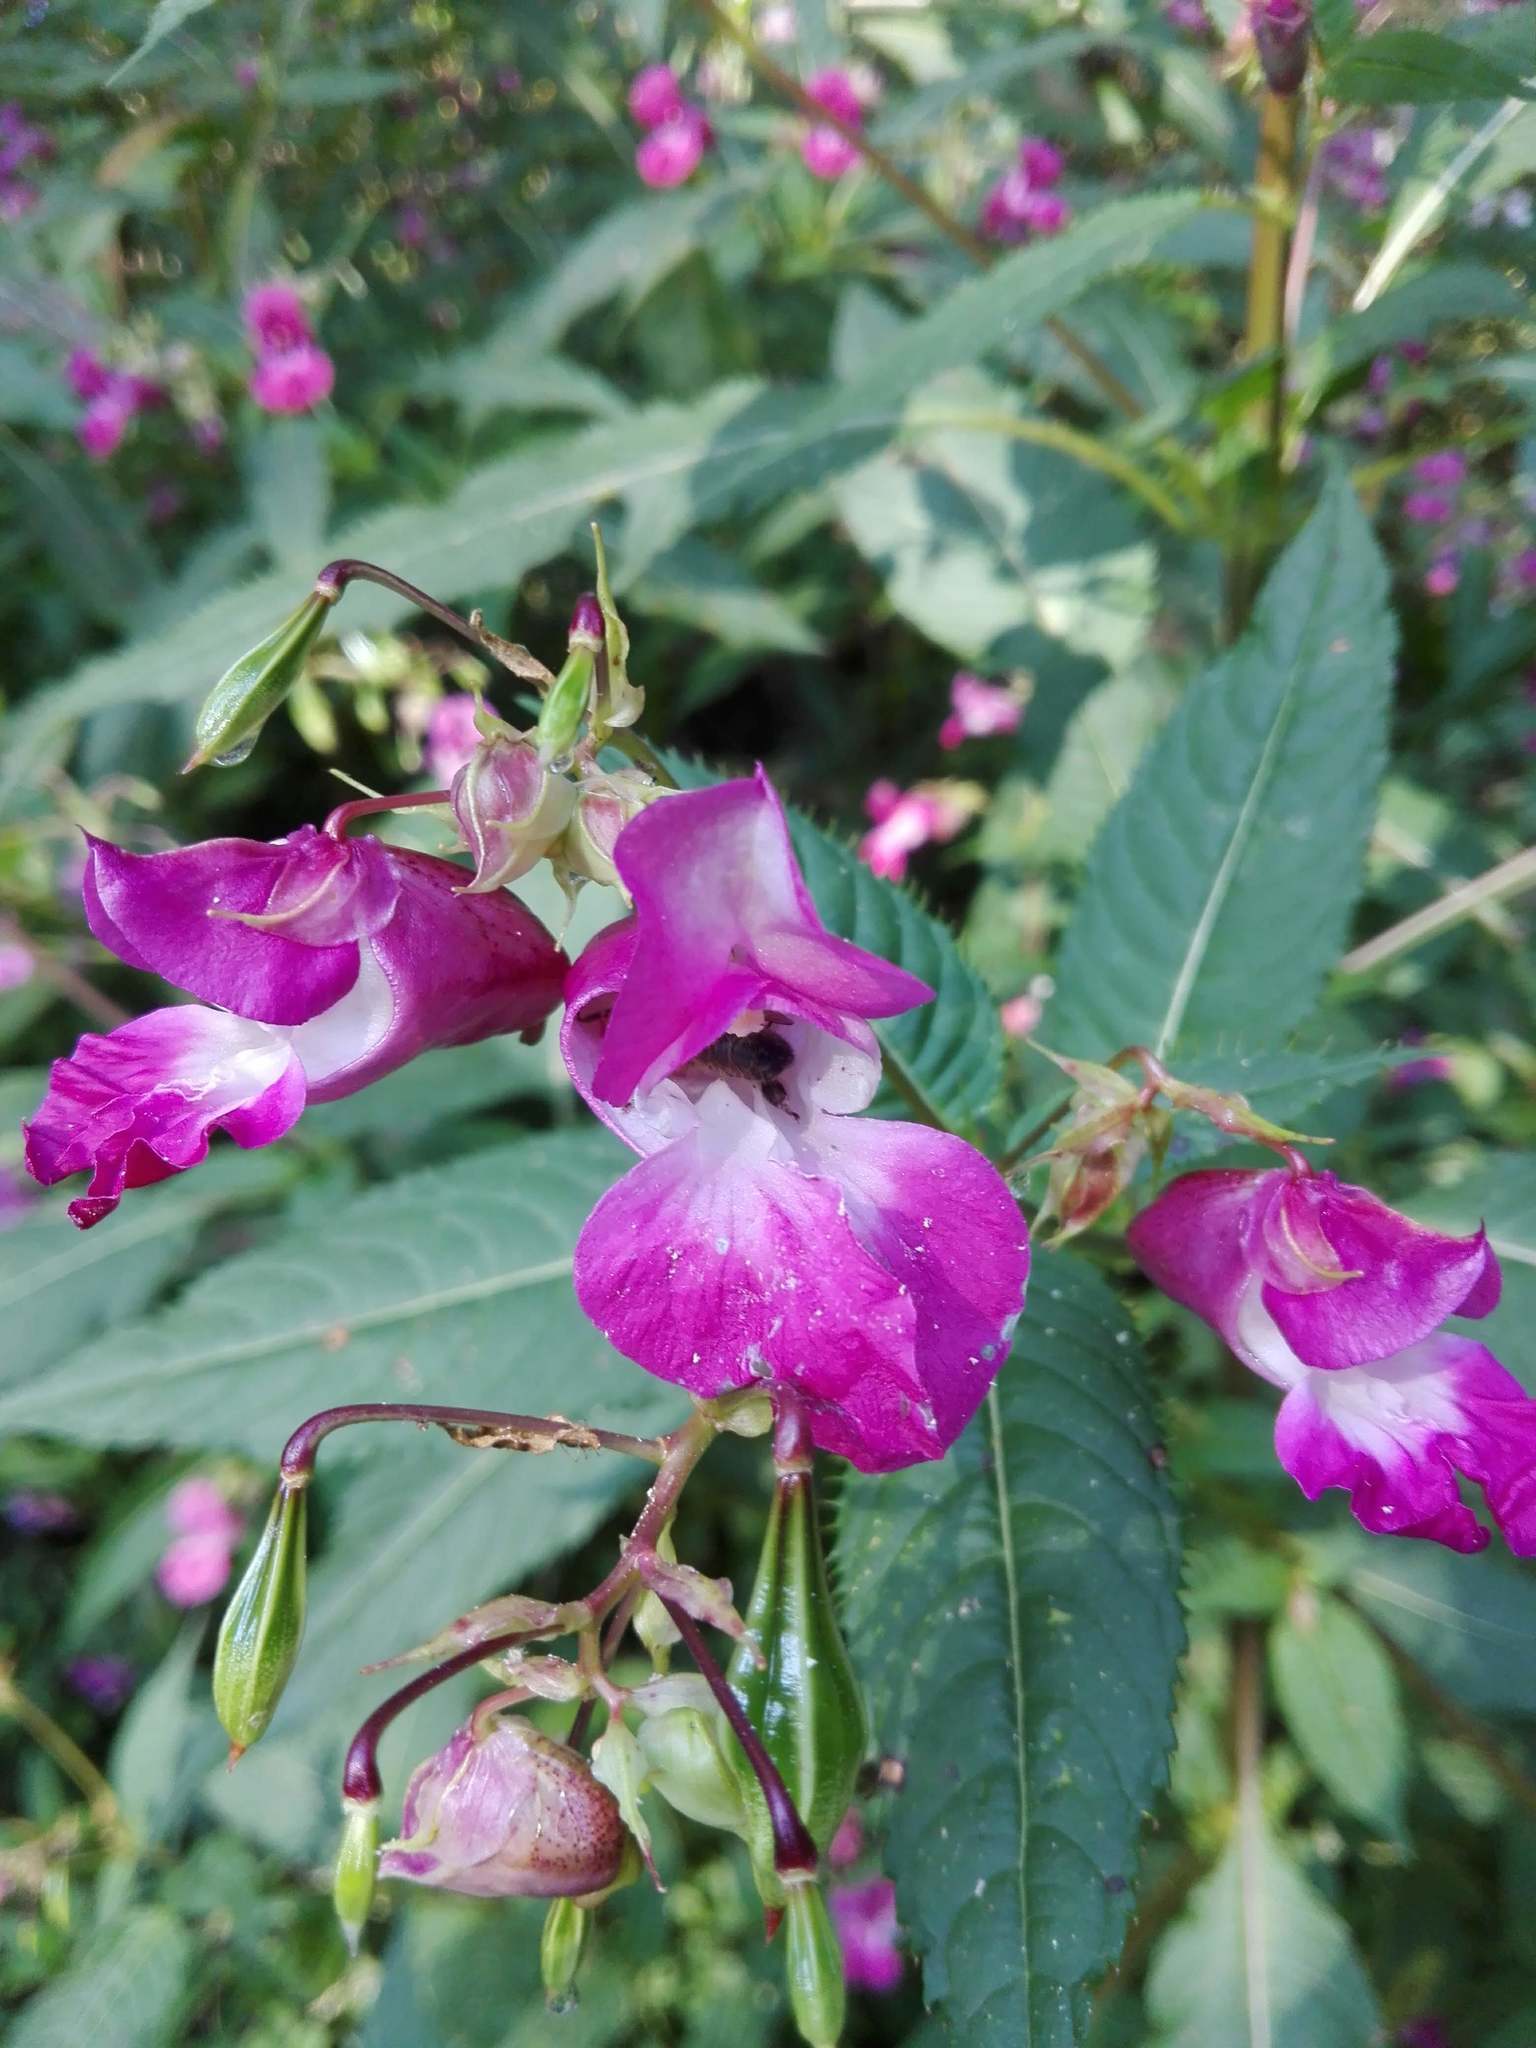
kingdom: Plantae
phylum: Tracheophyta
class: Magnoliopsida
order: Ericales
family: Balsaminaceae
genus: Impatiens
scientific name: Impatiens glandulifera
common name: Himalayan balsam
